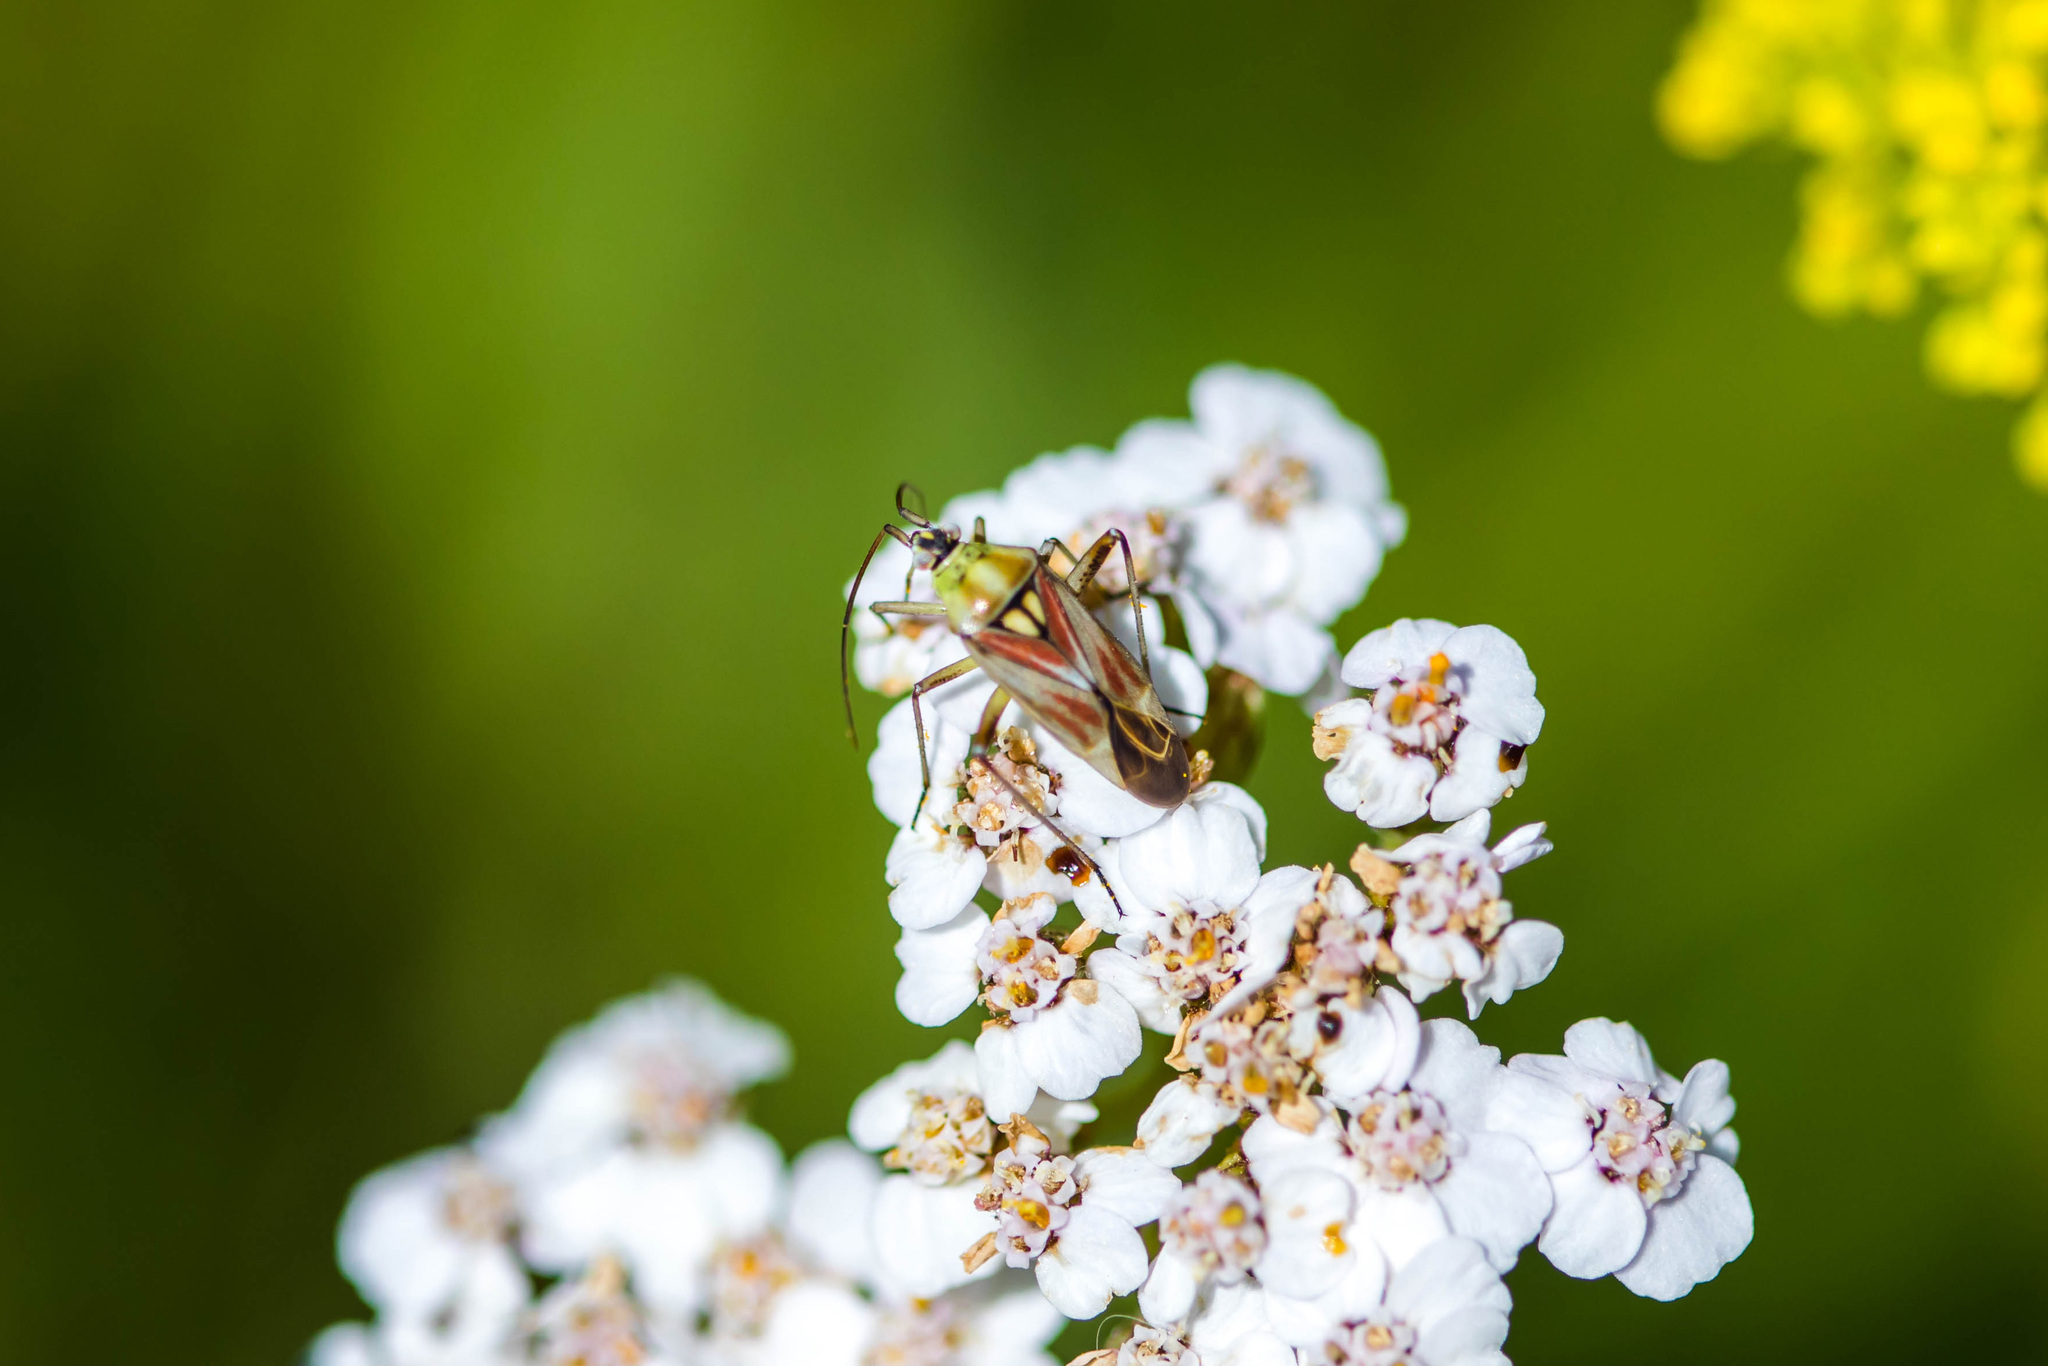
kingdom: Animalia
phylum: Arthropoda
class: Insecta
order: Hemiptera
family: Miridae
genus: Calocoris
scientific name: Calocoris roseomaculatus
